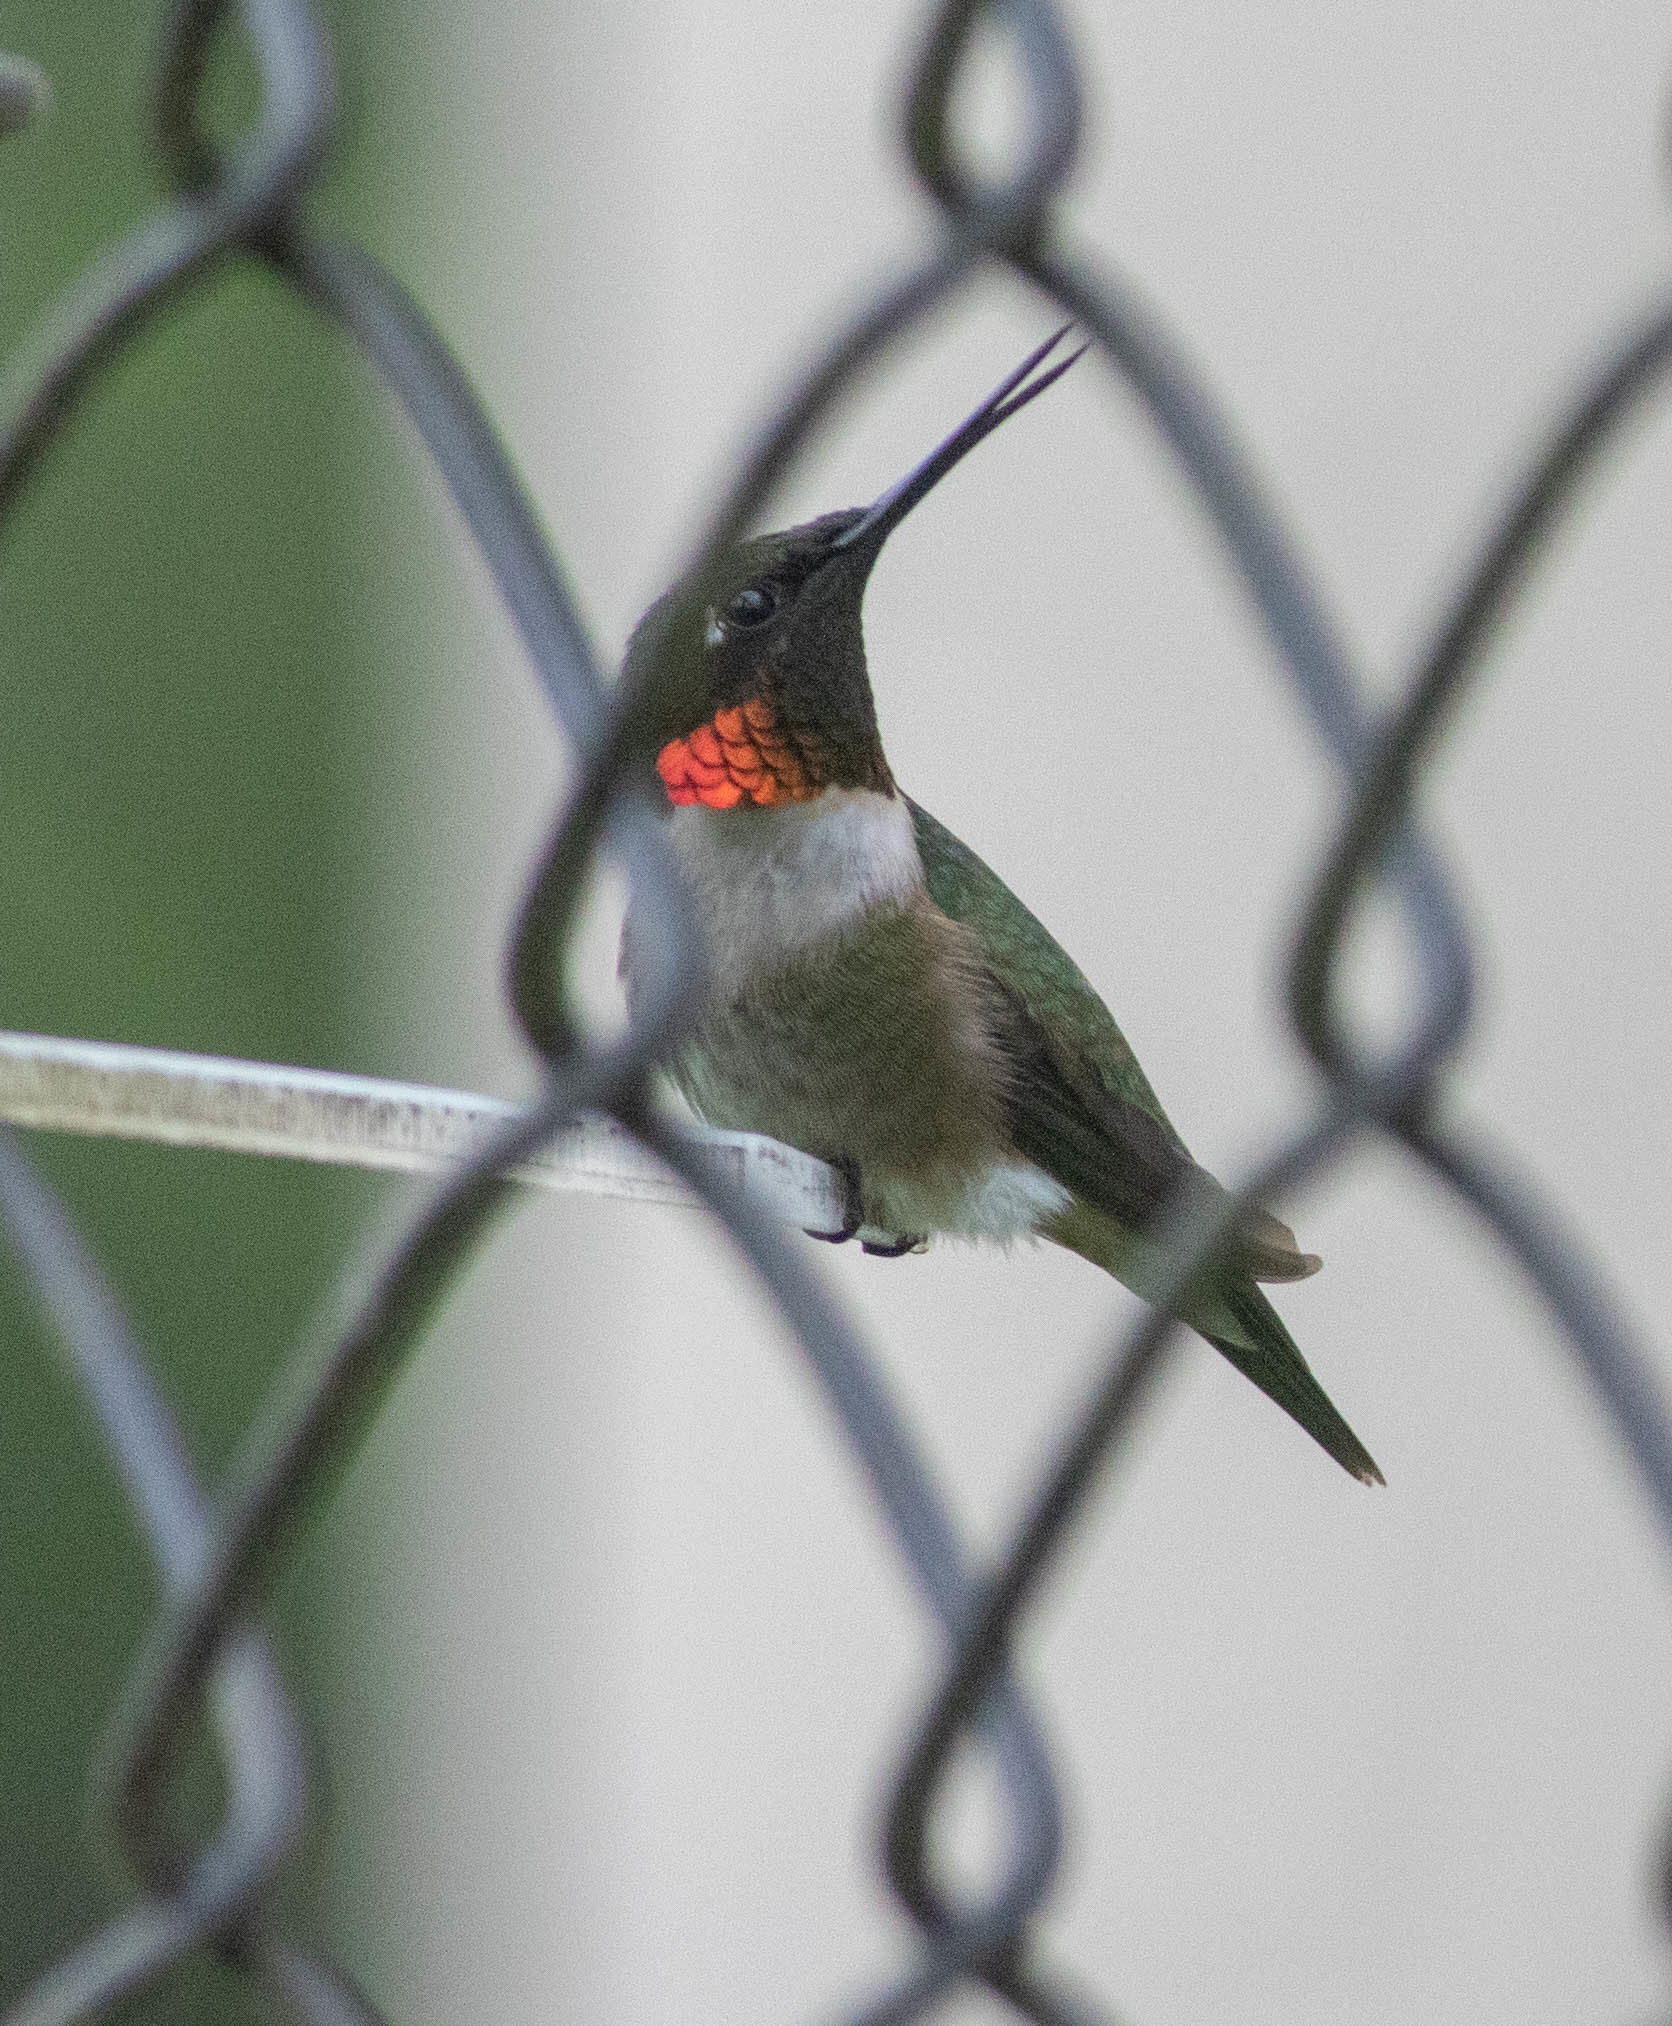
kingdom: Animalia
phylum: Chordata
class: Aves
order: Apodiformes
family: Trochilidae
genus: Archilochus
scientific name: Archilochus colubris
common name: Ruby-throated hummingbird
